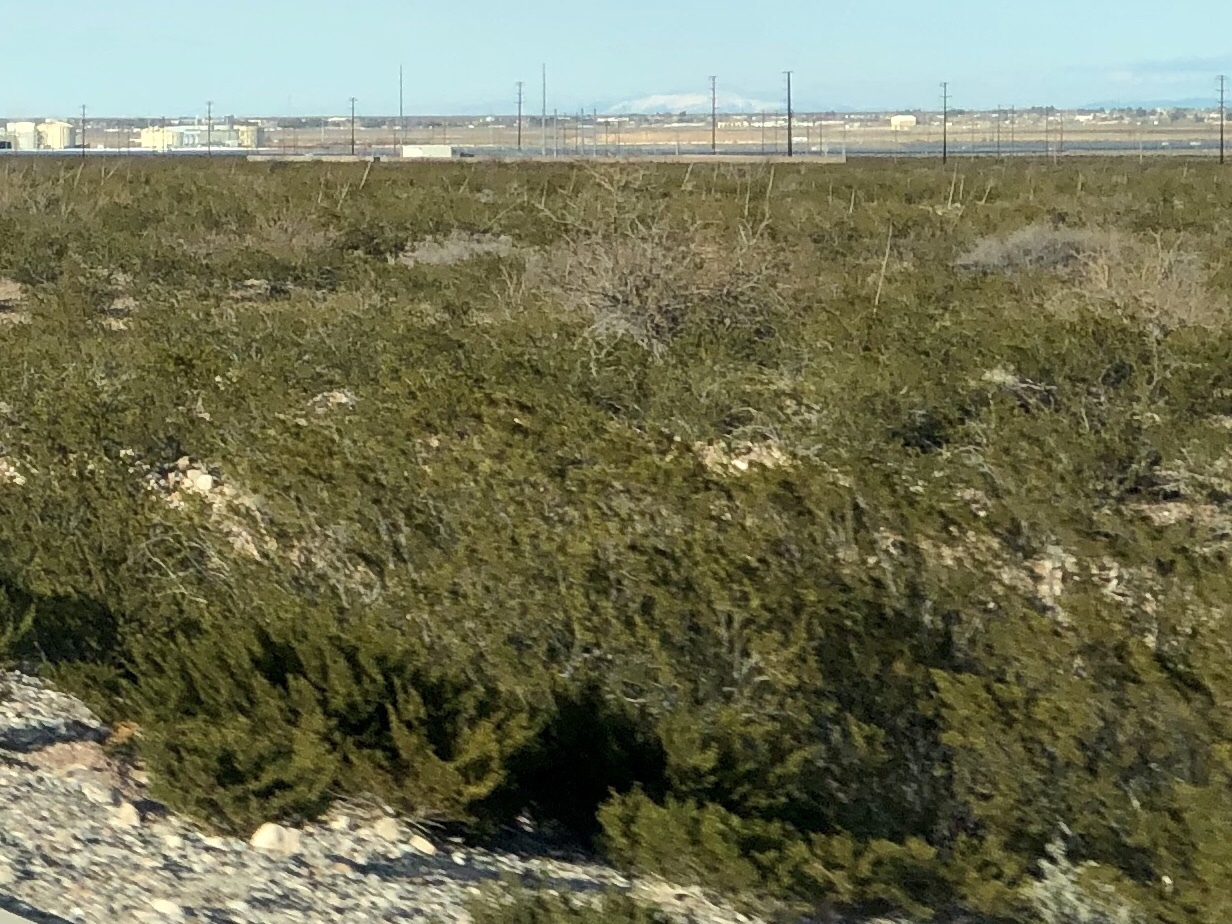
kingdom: Plantae
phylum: Tracheophyta
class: Magnoliopsida
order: Zygophyllales
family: Zygophyllaceae
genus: Larrea
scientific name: Larrea tridentata
